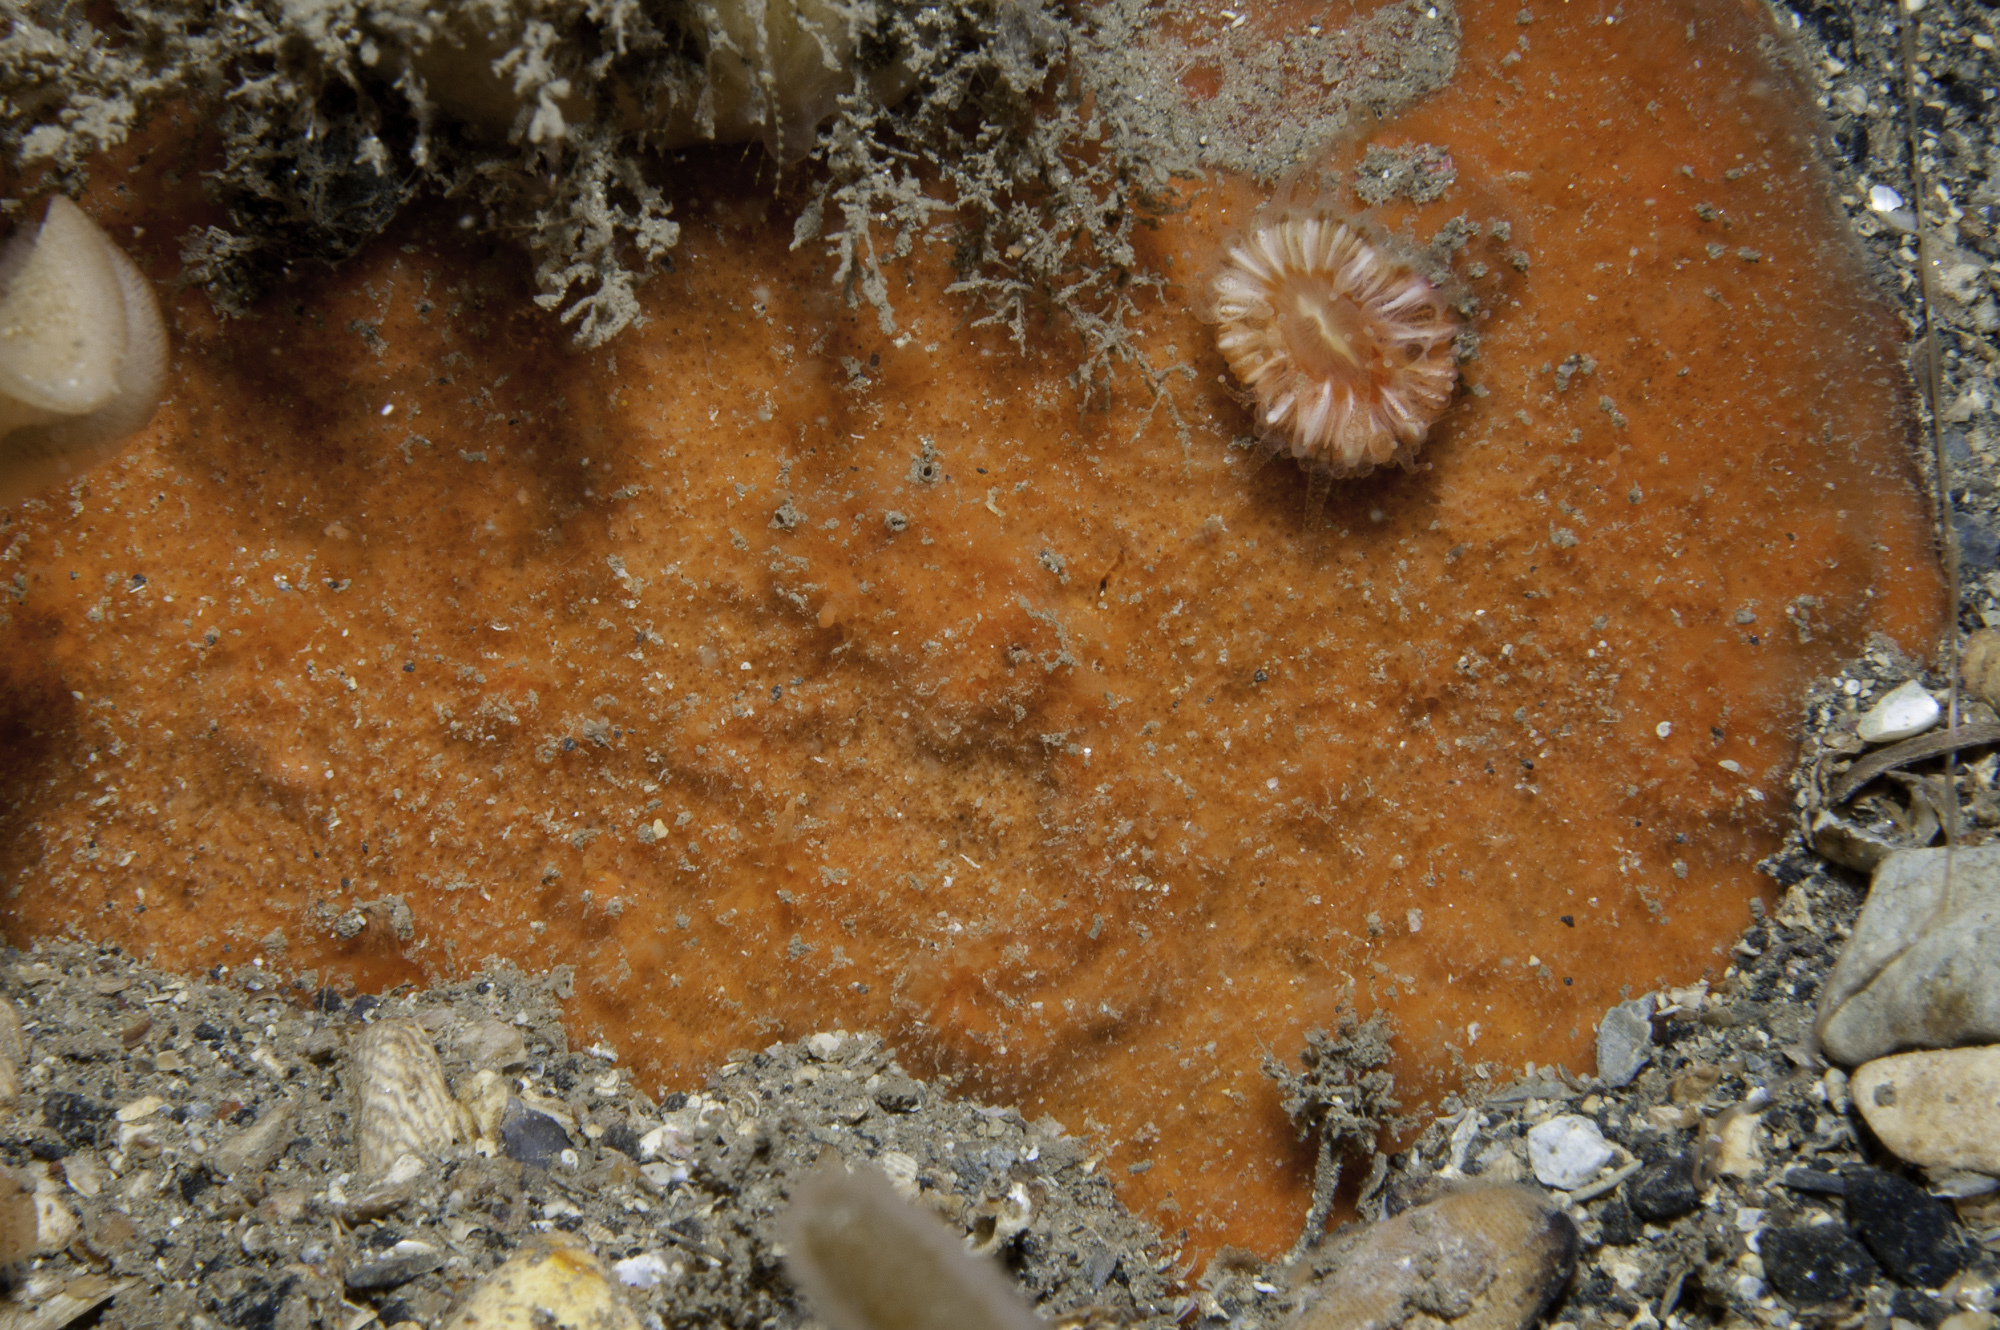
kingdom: Animalia
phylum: Porifera
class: Demospongiae
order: Axinellida
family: Raspailiidae
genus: Hymeraphia
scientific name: Hymeraphia breeni
